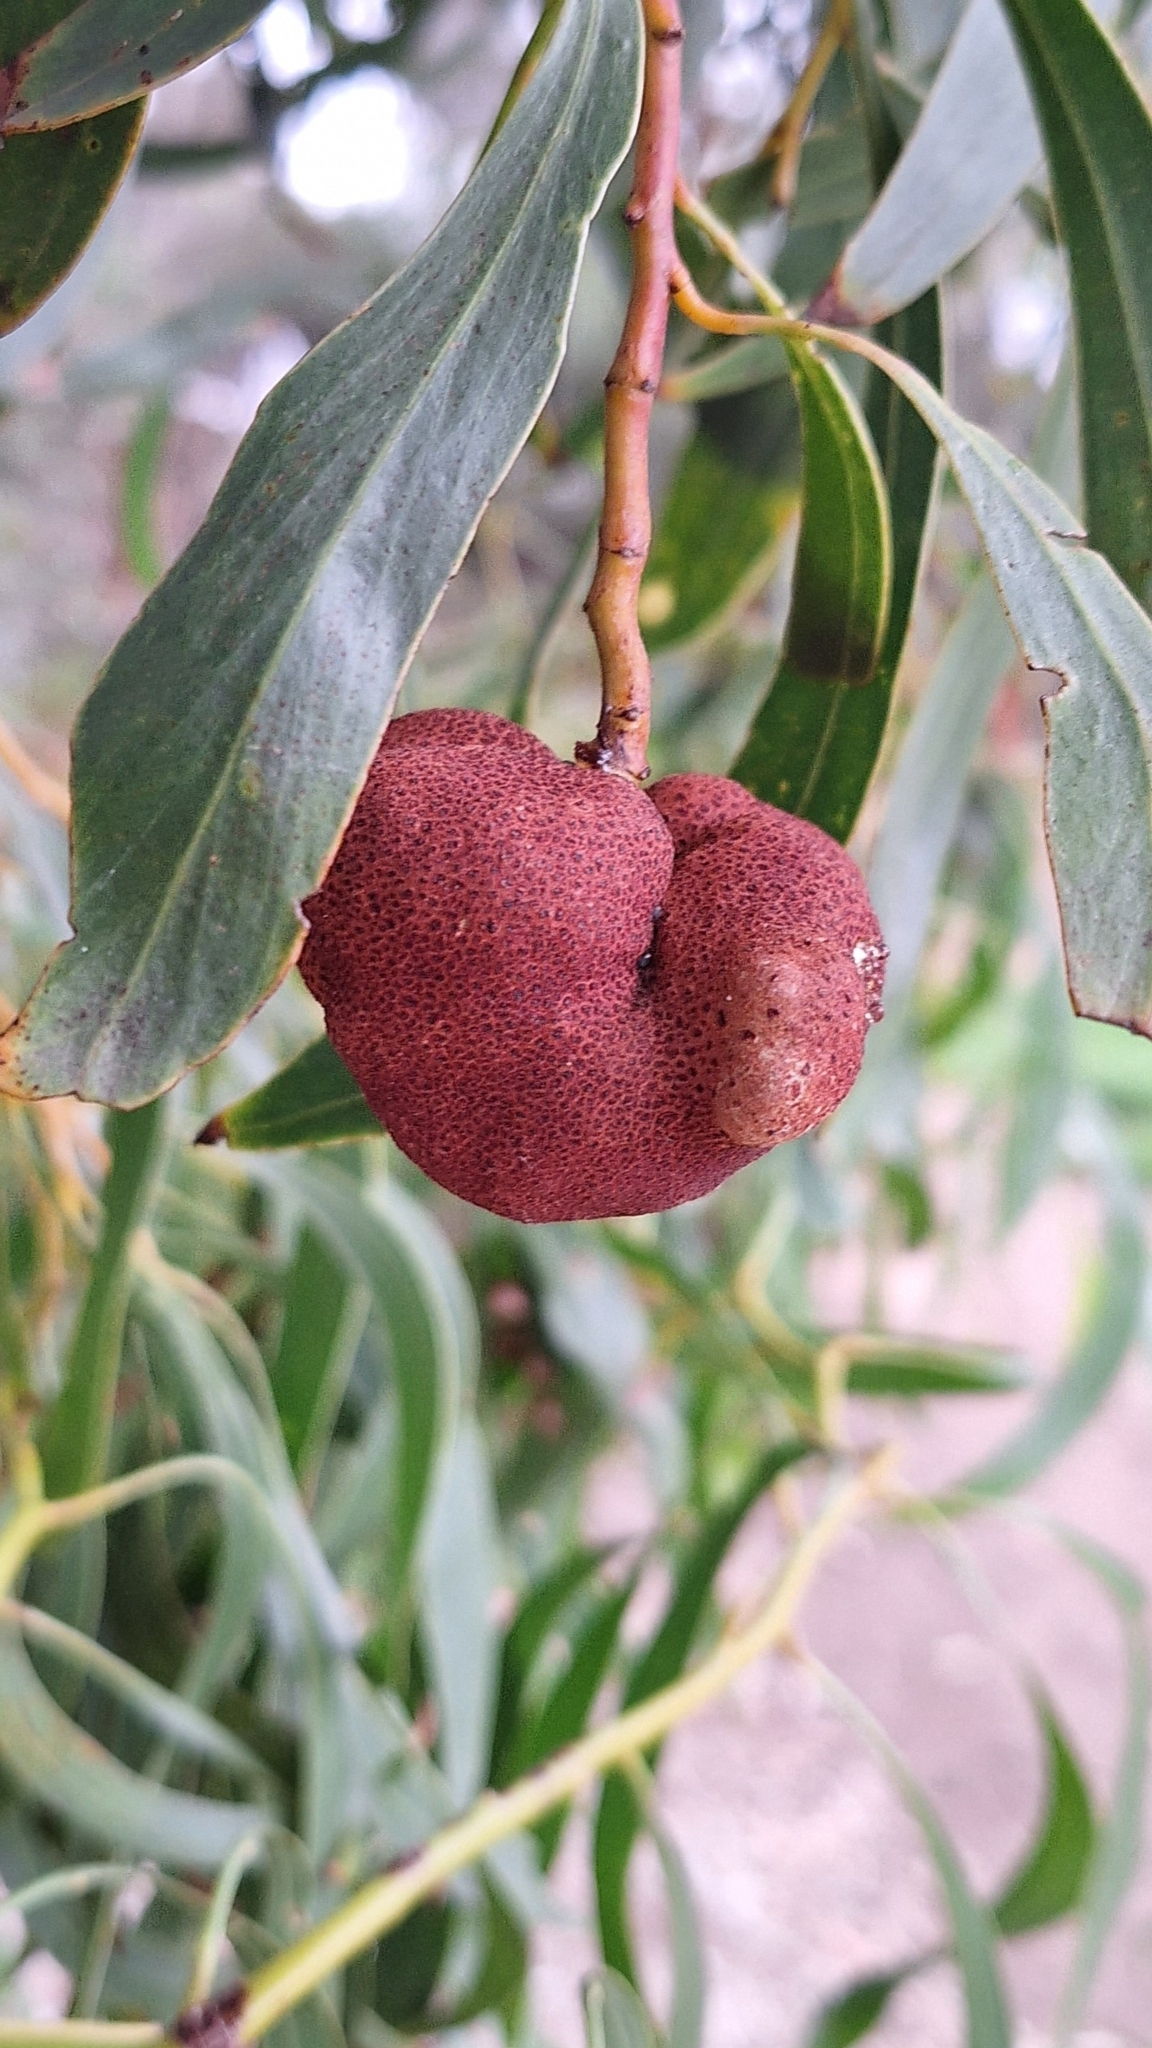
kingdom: Fungi
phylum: Basidiomycota
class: Pucciniomycetes
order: Pucciniales
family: Uromycladiaceae
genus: Uromycladium
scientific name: Uromycladium
